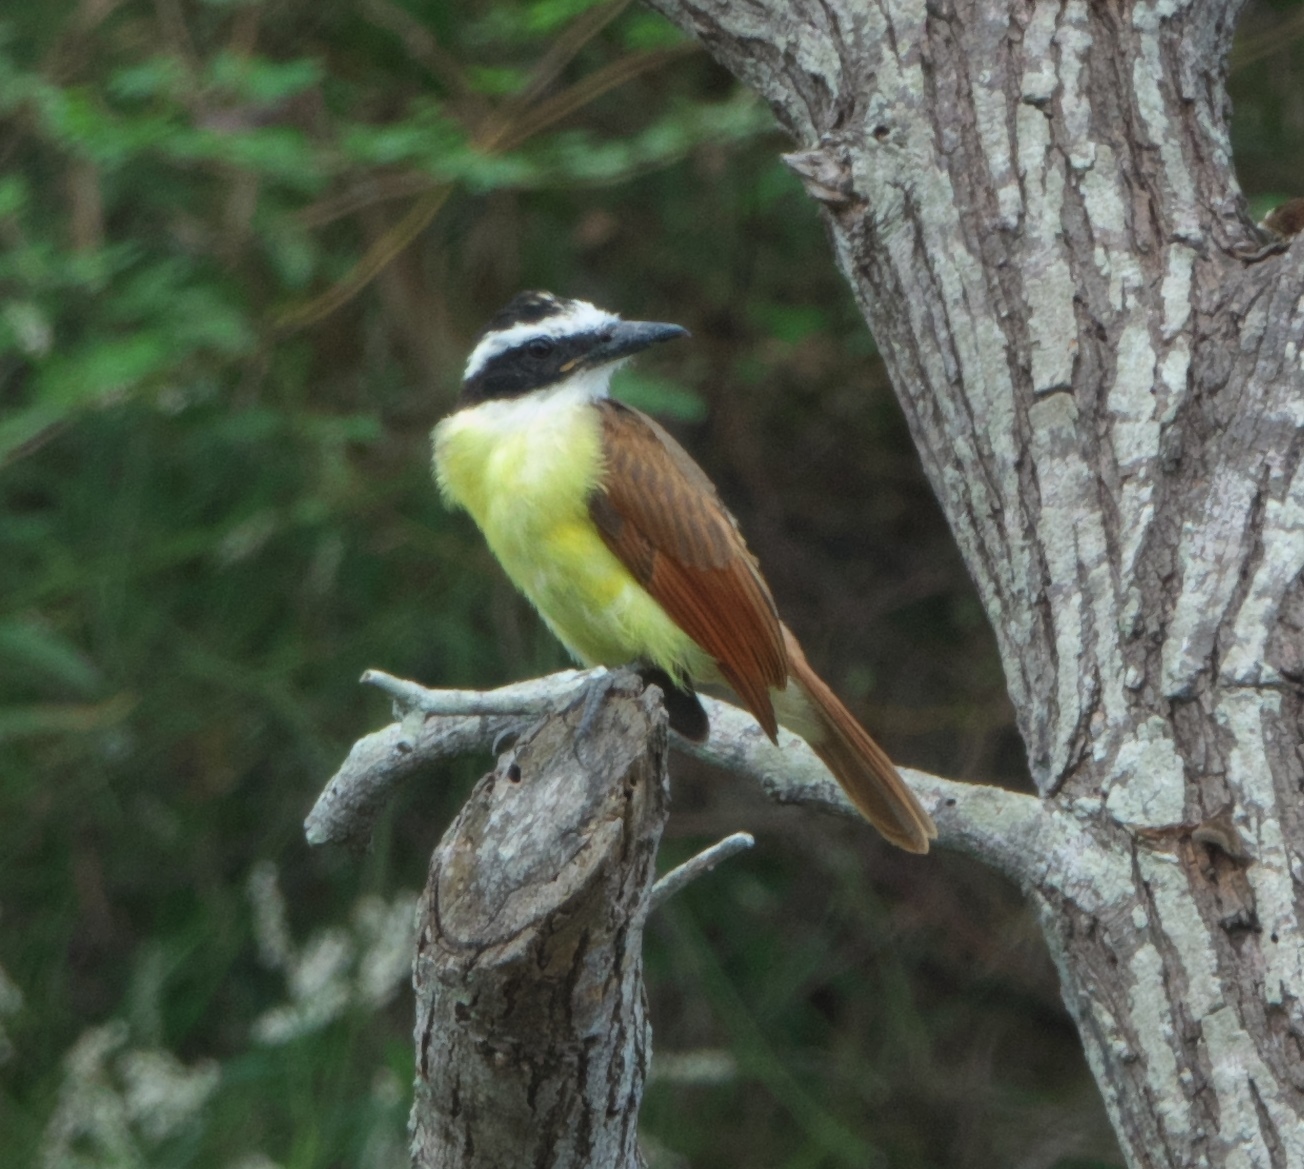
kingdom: Animalia
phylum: Chordata
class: Aves
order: Passeriformes
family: Tyrannidae
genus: Pitangus
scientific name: Pitangus sulphuratus
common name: Great kiskadee
